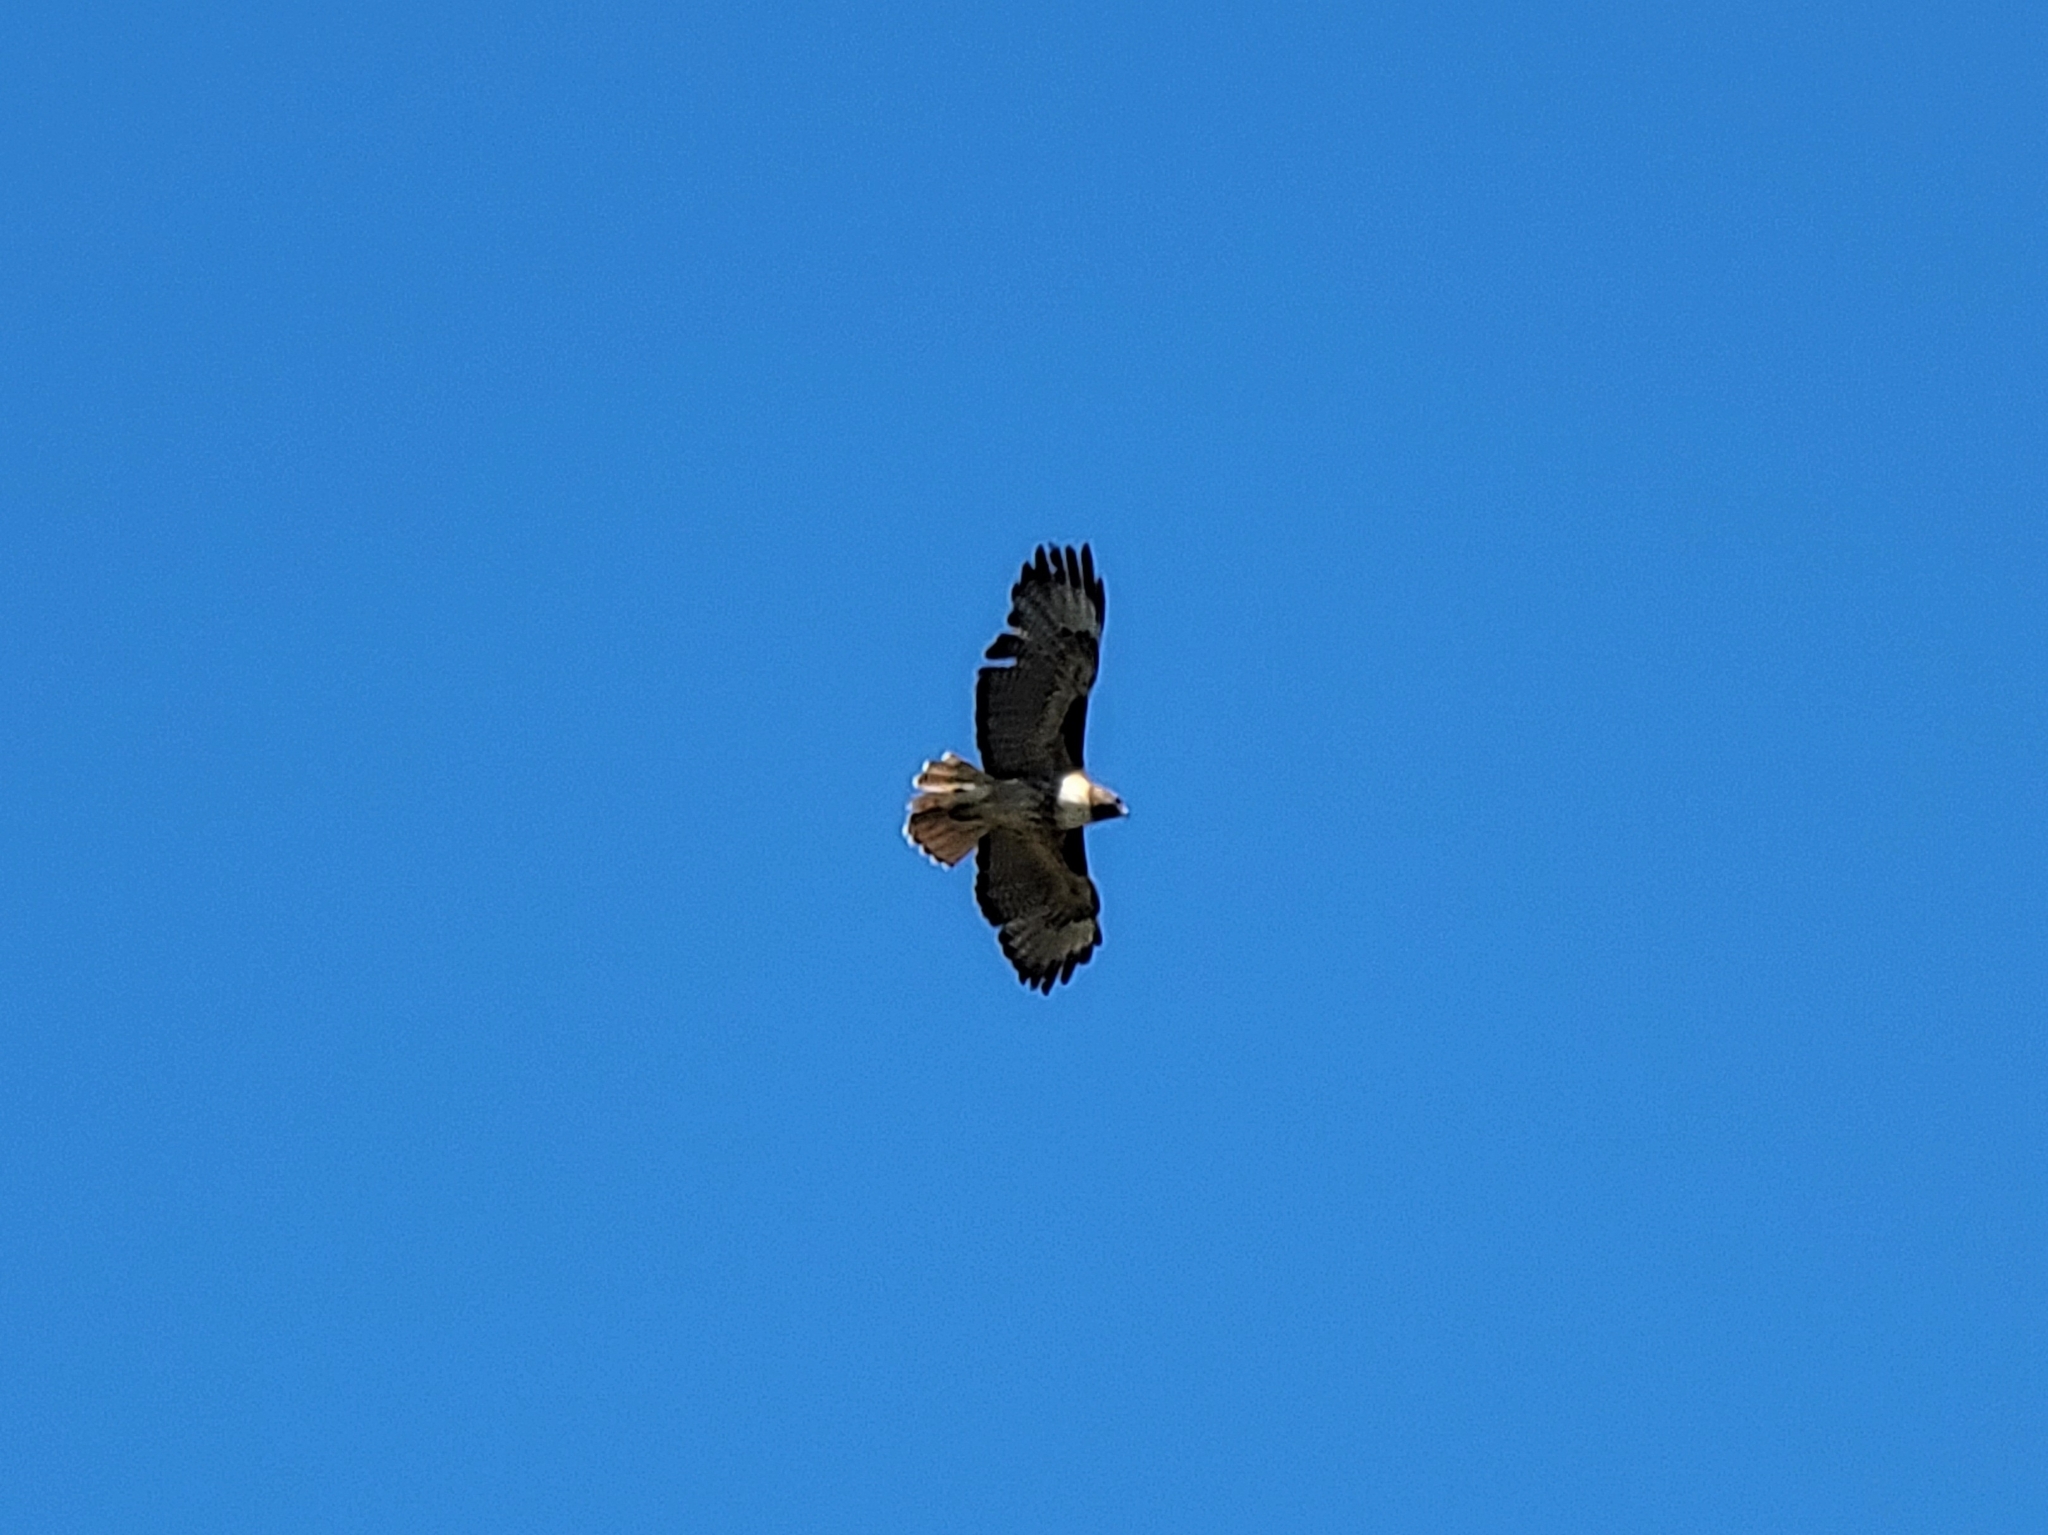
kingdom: Animalia
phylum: Chordata
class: Aves
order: Accipitriformes
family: Accipitridae
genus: Buteo
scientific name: Buteo jamaicensis
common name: Red-tailed hawk
